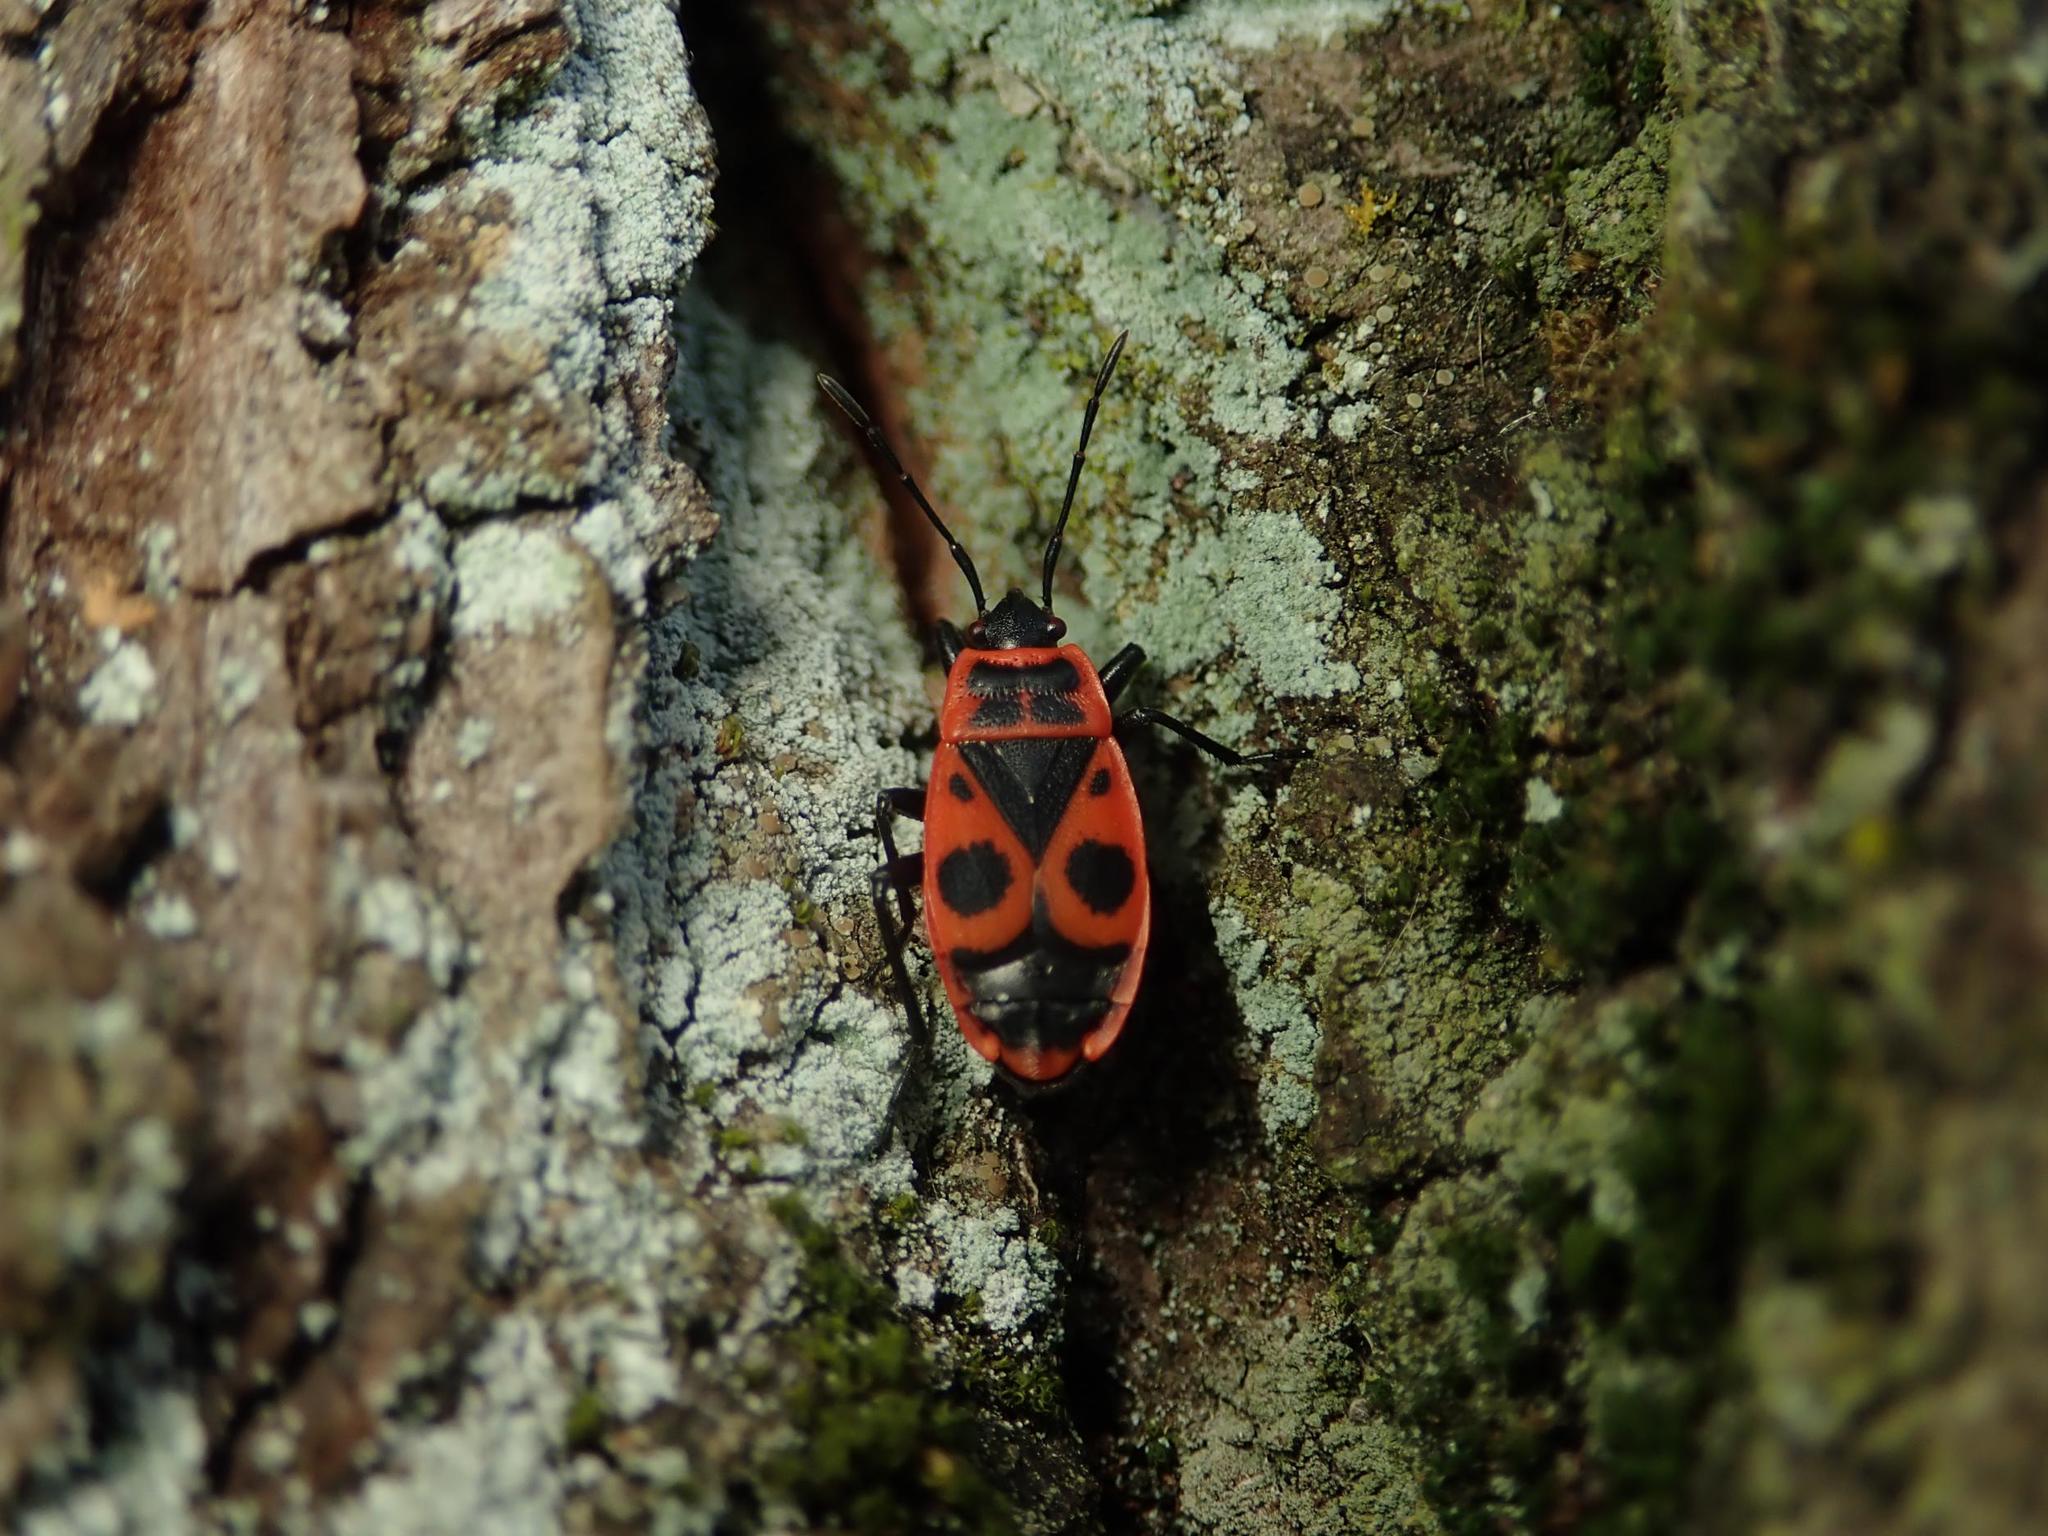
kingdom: Animalia
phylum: Arthropoda
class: Insecta
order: Hemiptera
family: Pyrrhocoridae
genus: Pyrrhocoris
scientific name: Pyrrhocoris apterus
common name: Firebug
